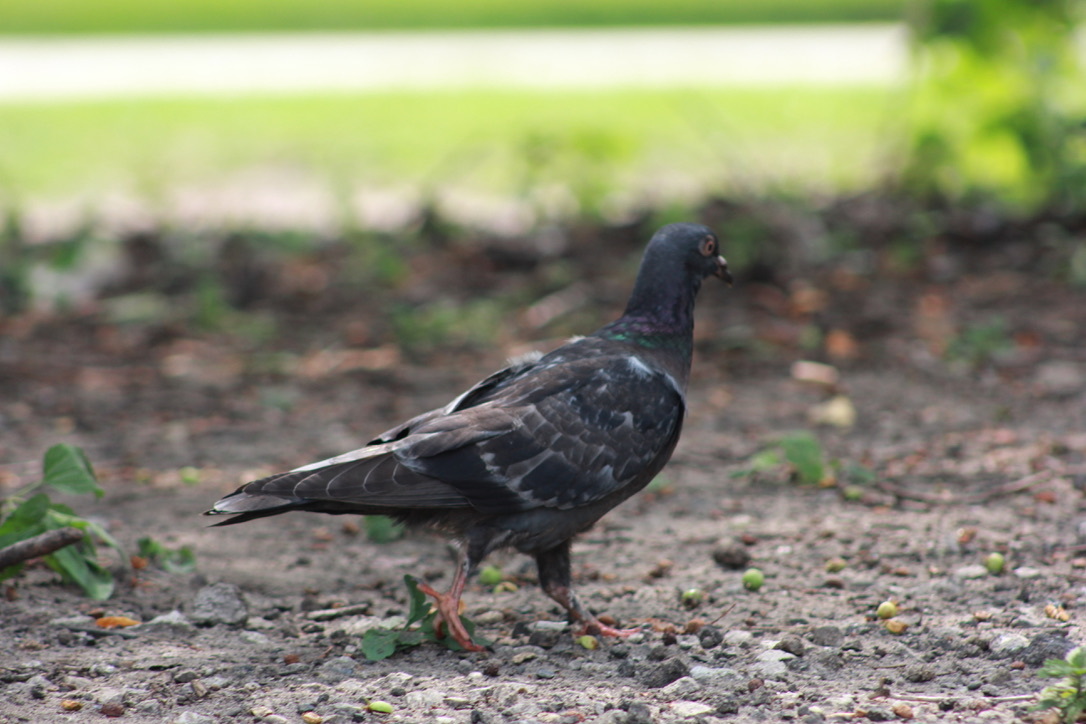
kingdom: Animalia
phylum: Chordata
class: Aves
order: Columbiformes
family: Columbidae
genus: Columba
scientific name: Columba livia
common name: Rock pigeon
